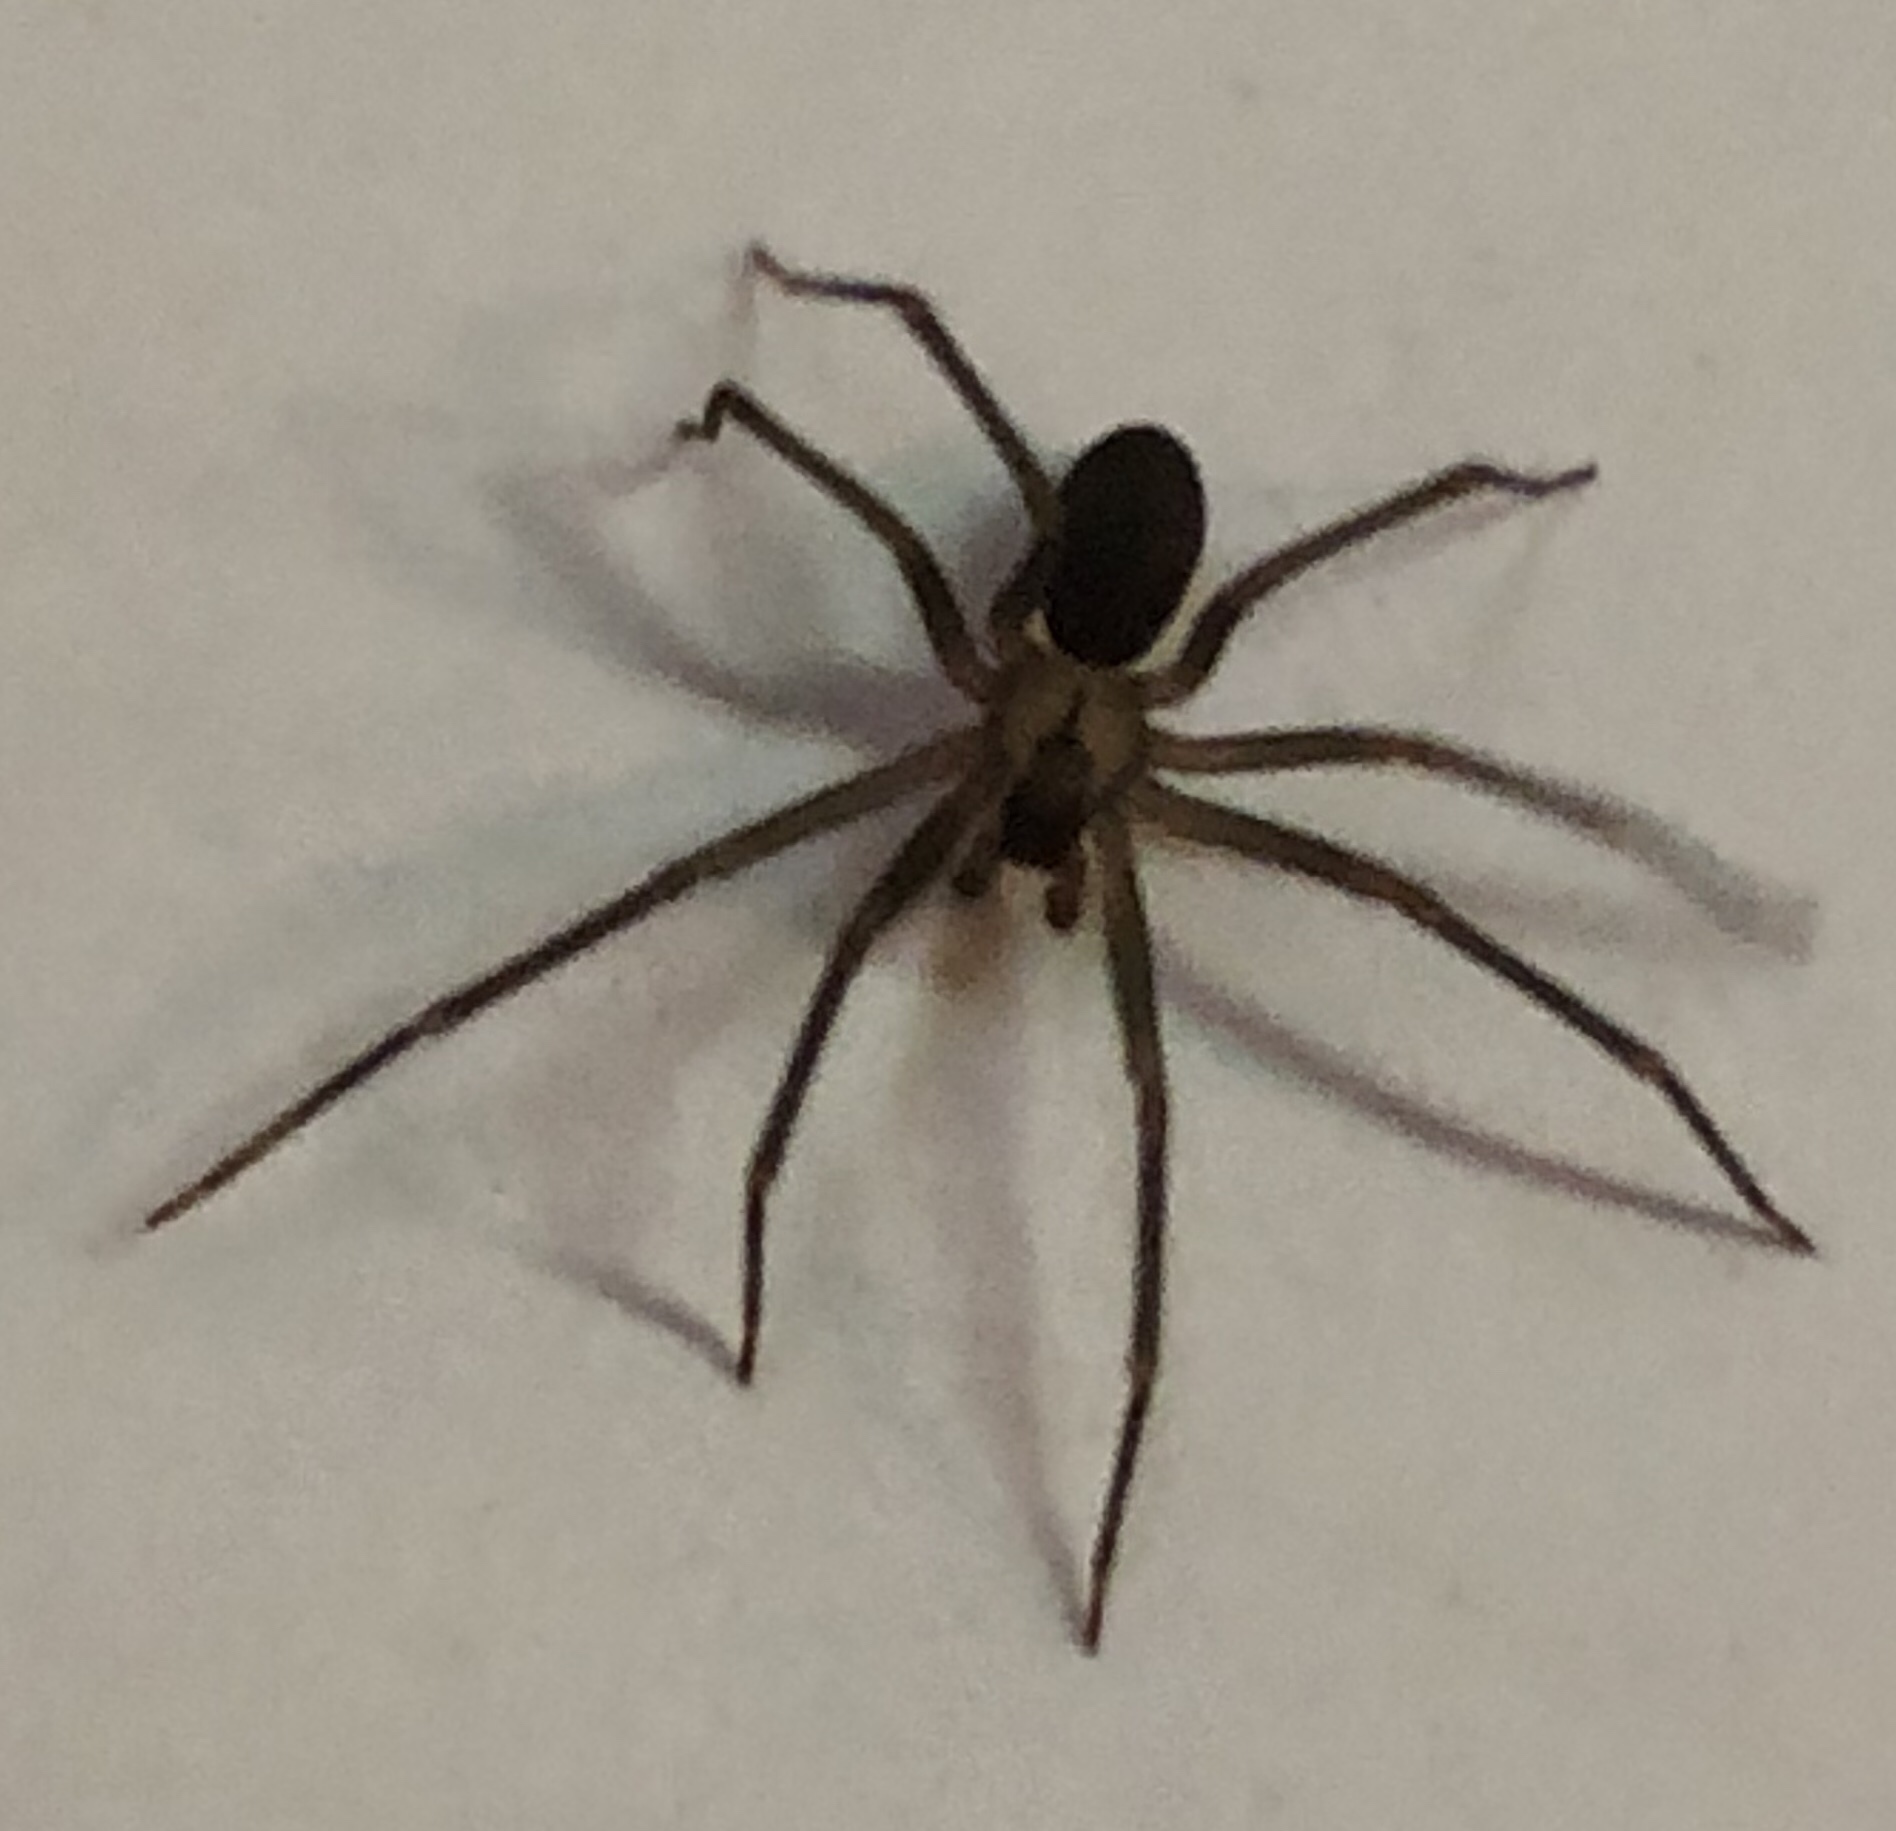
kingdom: Animalia
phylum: Arthropoda
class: Arachnida
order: Araneae
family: Sicariidae
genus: Loxosceles
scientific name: Loxosceles reclusa
